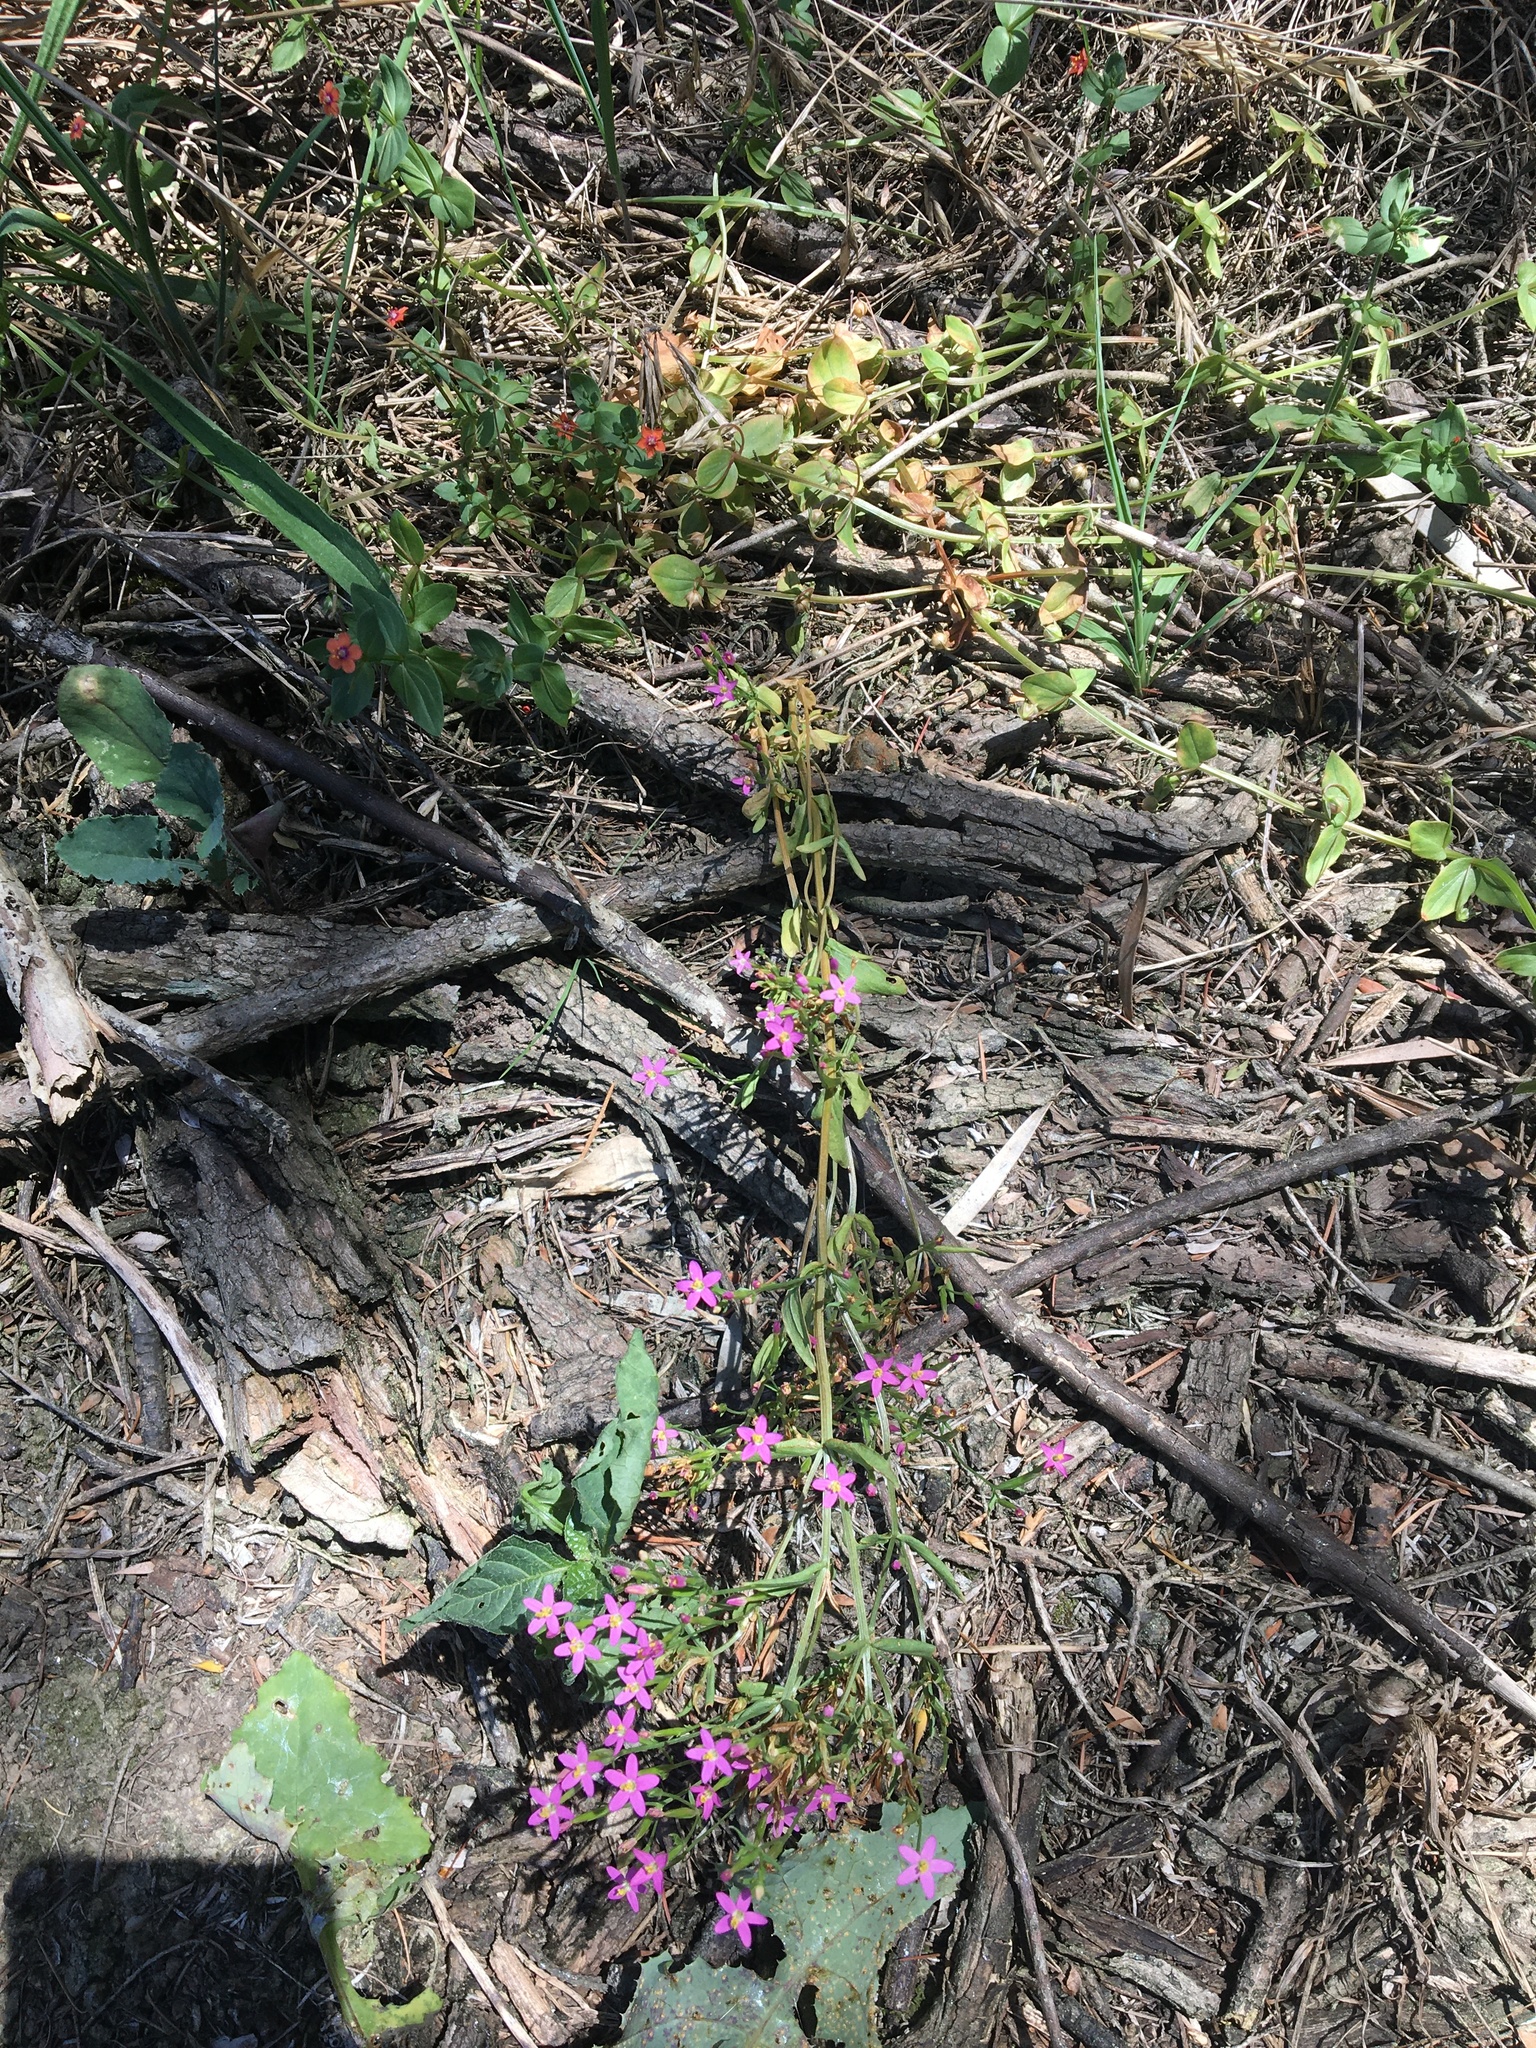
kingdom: Plantae
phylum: Tracheophyta
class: Magnoliopsida
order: Gentianales
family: Gentianaceae
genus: Centaurium
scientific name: Centaurium erythraea
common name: Common centaury
